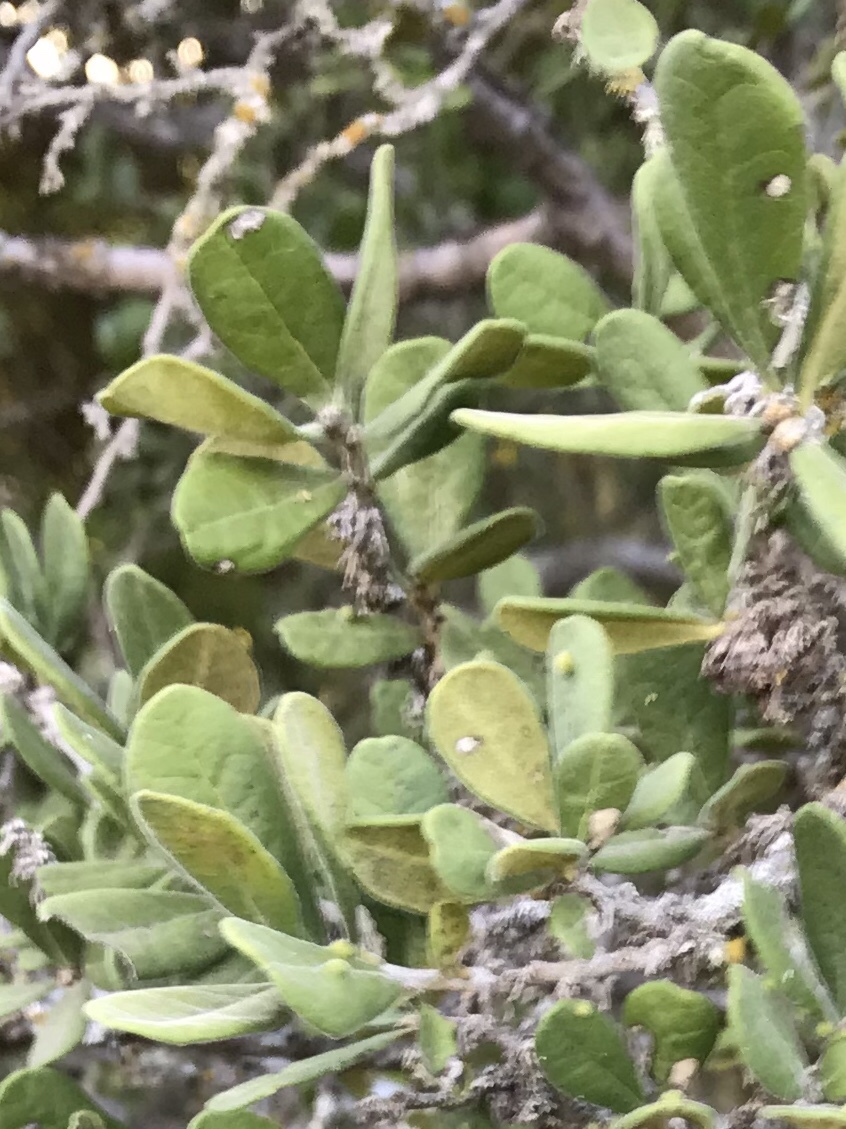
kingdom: Plantae
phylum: Tracheophyta
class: Magnoliopsida
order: Ericales
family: Ebenaceae
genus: Diospyros
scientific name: Diospyros texana
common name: Texas persimmon
